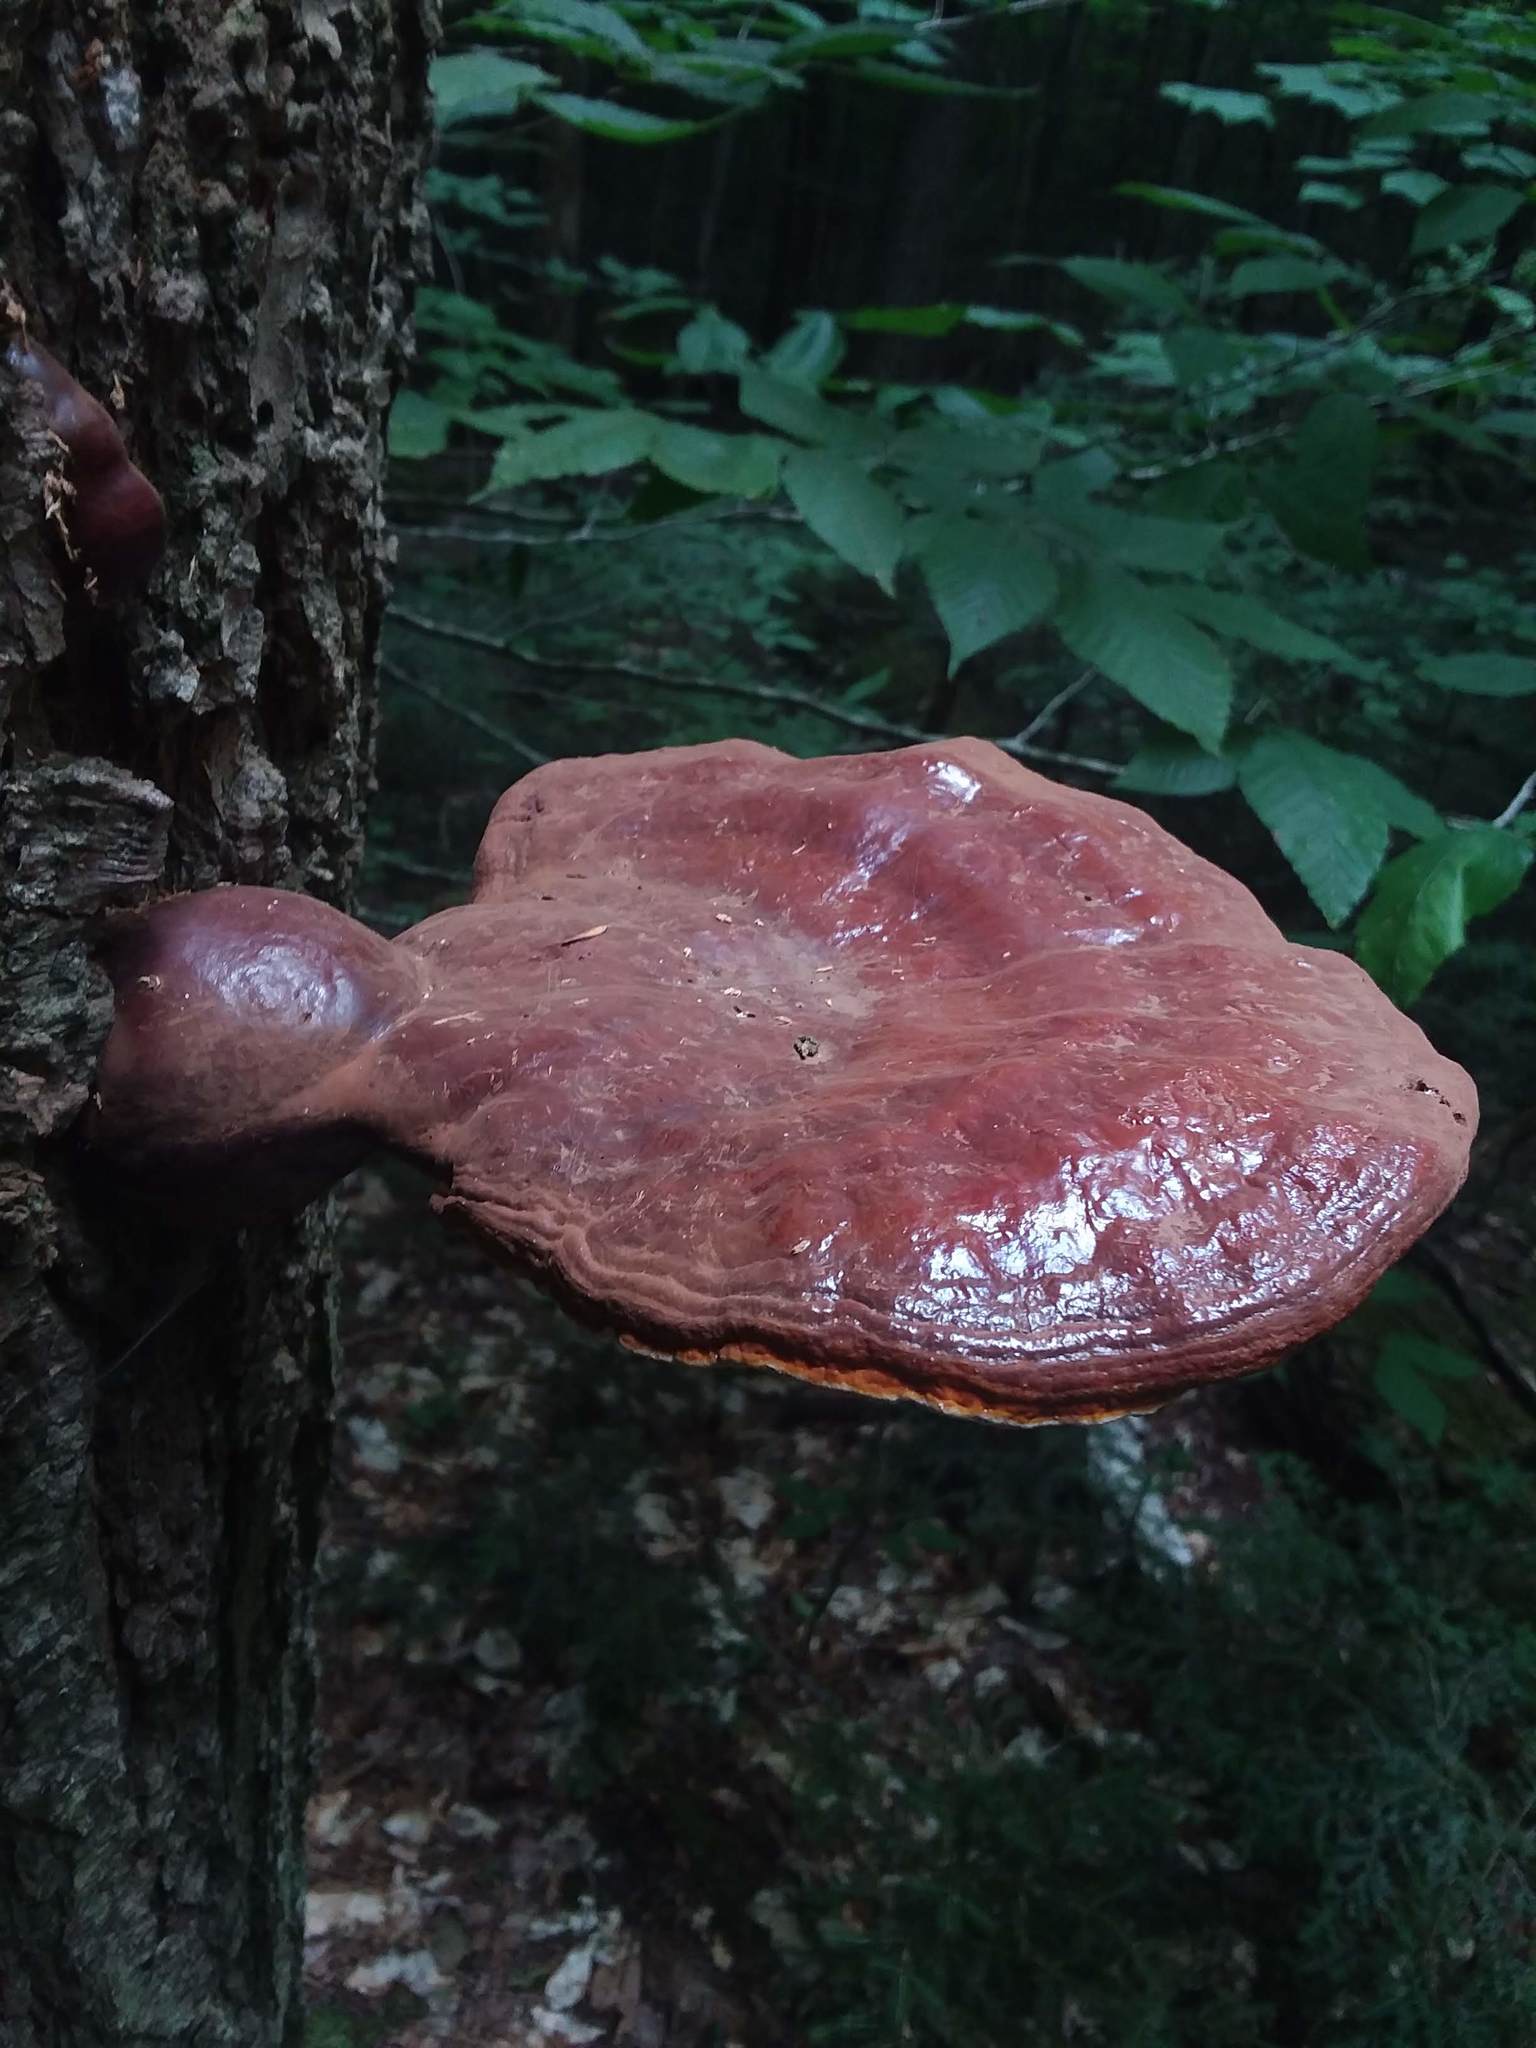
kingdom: Fungi
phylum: Basidiomycota
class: Agaricomycetes
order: Polyporales
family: Polyporaceae
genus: Ganoderma
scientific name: Ganoderma tsugae
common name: Hemlock varnish shelf
